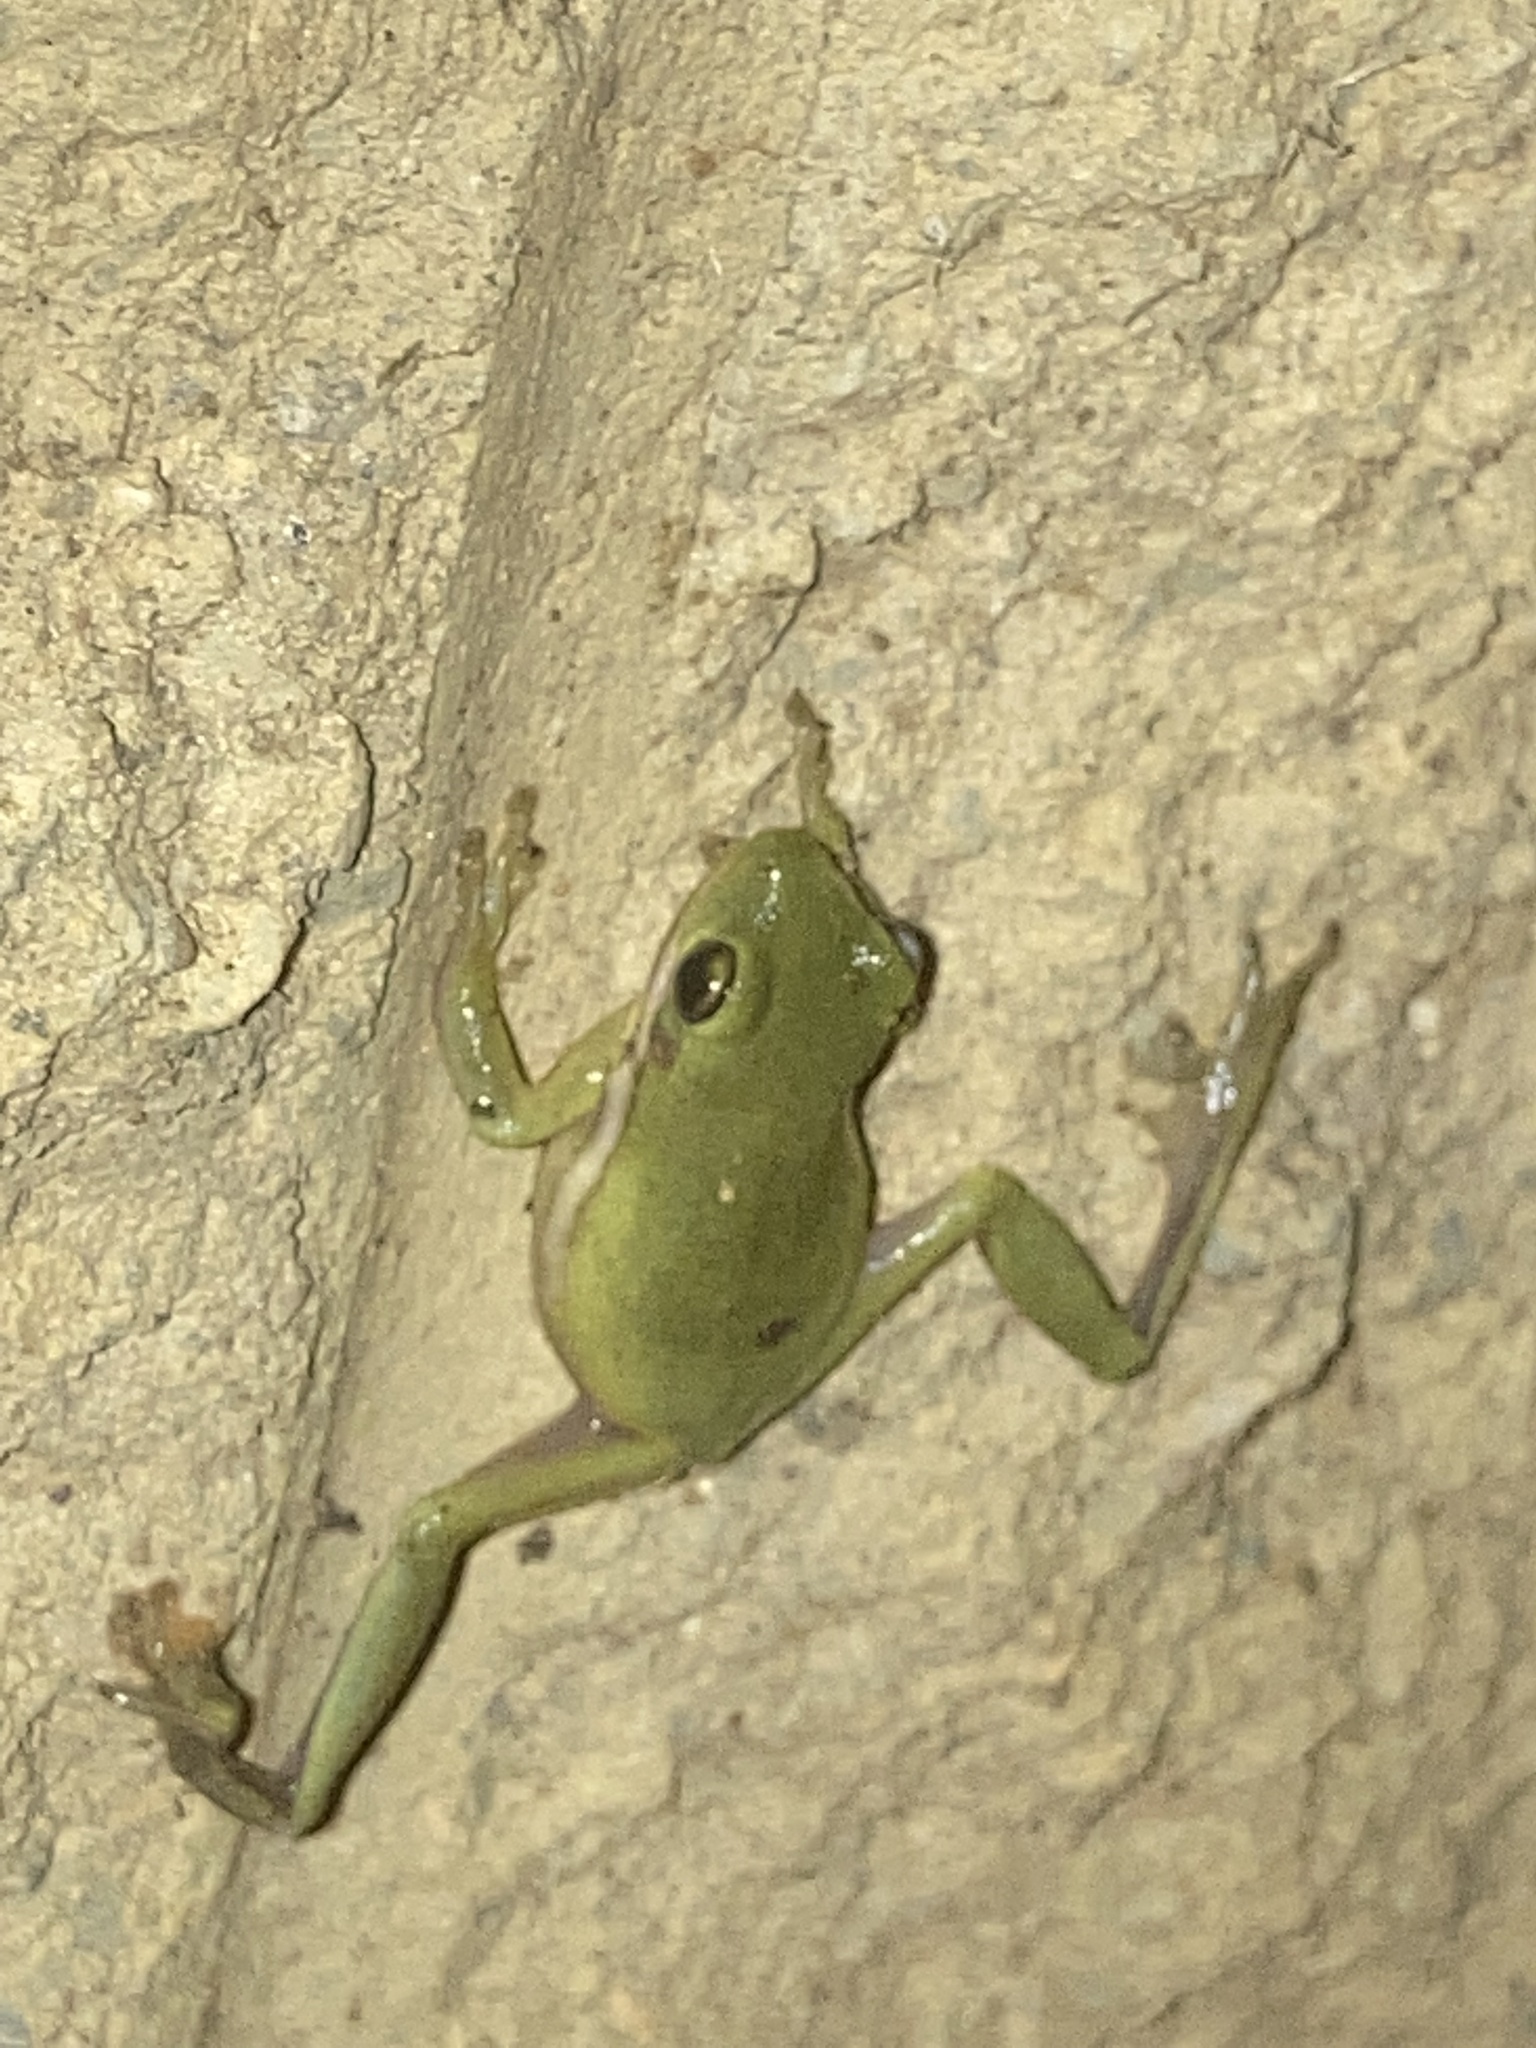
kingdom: Animalia
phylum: Chordata
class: Amphibia
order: Anura
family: Hylidae
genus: Dryophytes
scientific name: Dryophytes cinereus
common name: Green treefrog
